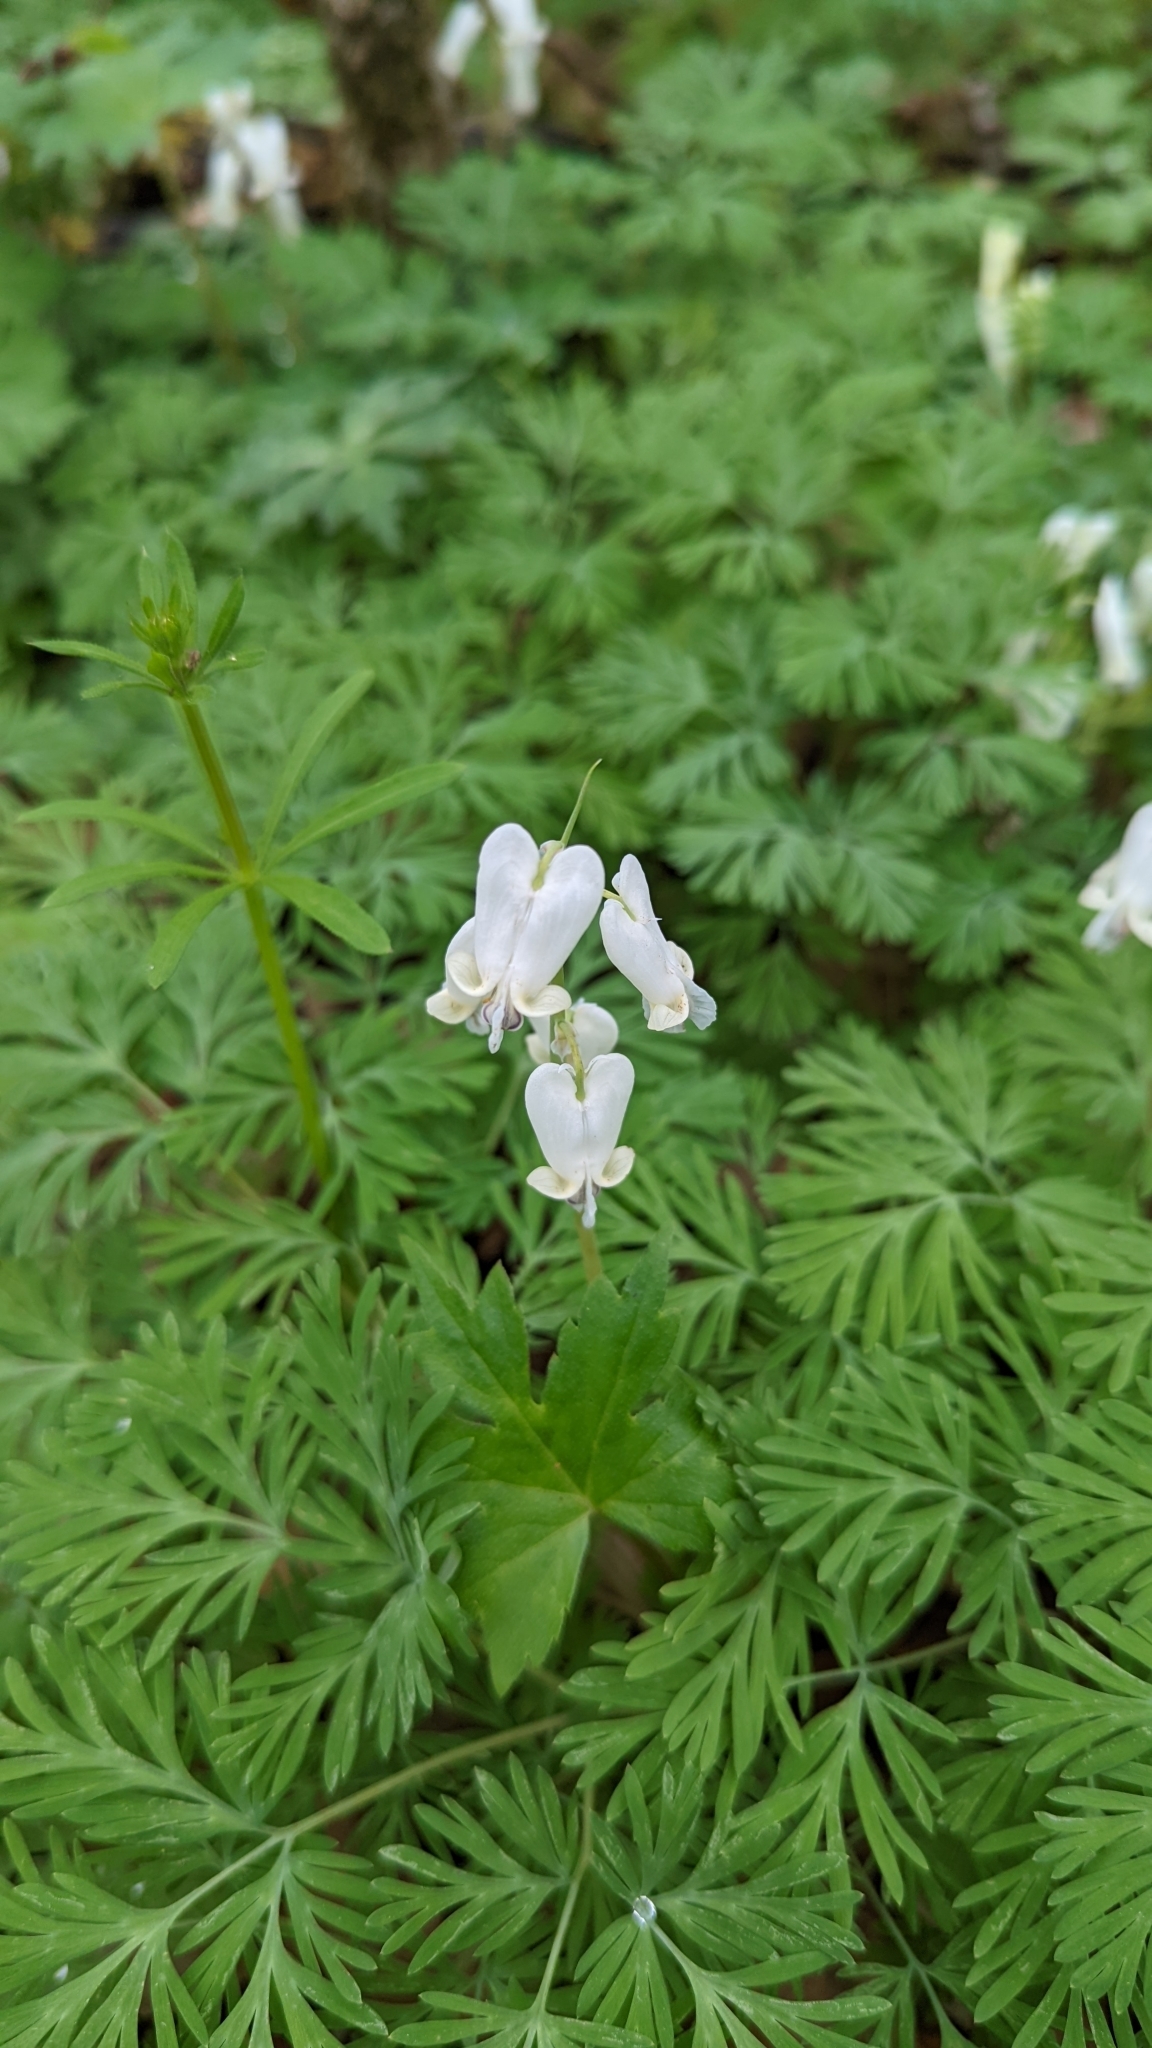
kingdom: Plantae
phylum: Tracheophyta
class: Magnoliopsida
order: Ranunculales
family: Papaveraceae
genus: Dicentra
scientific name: Dicentra canadensis
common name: Squirrel-corn
